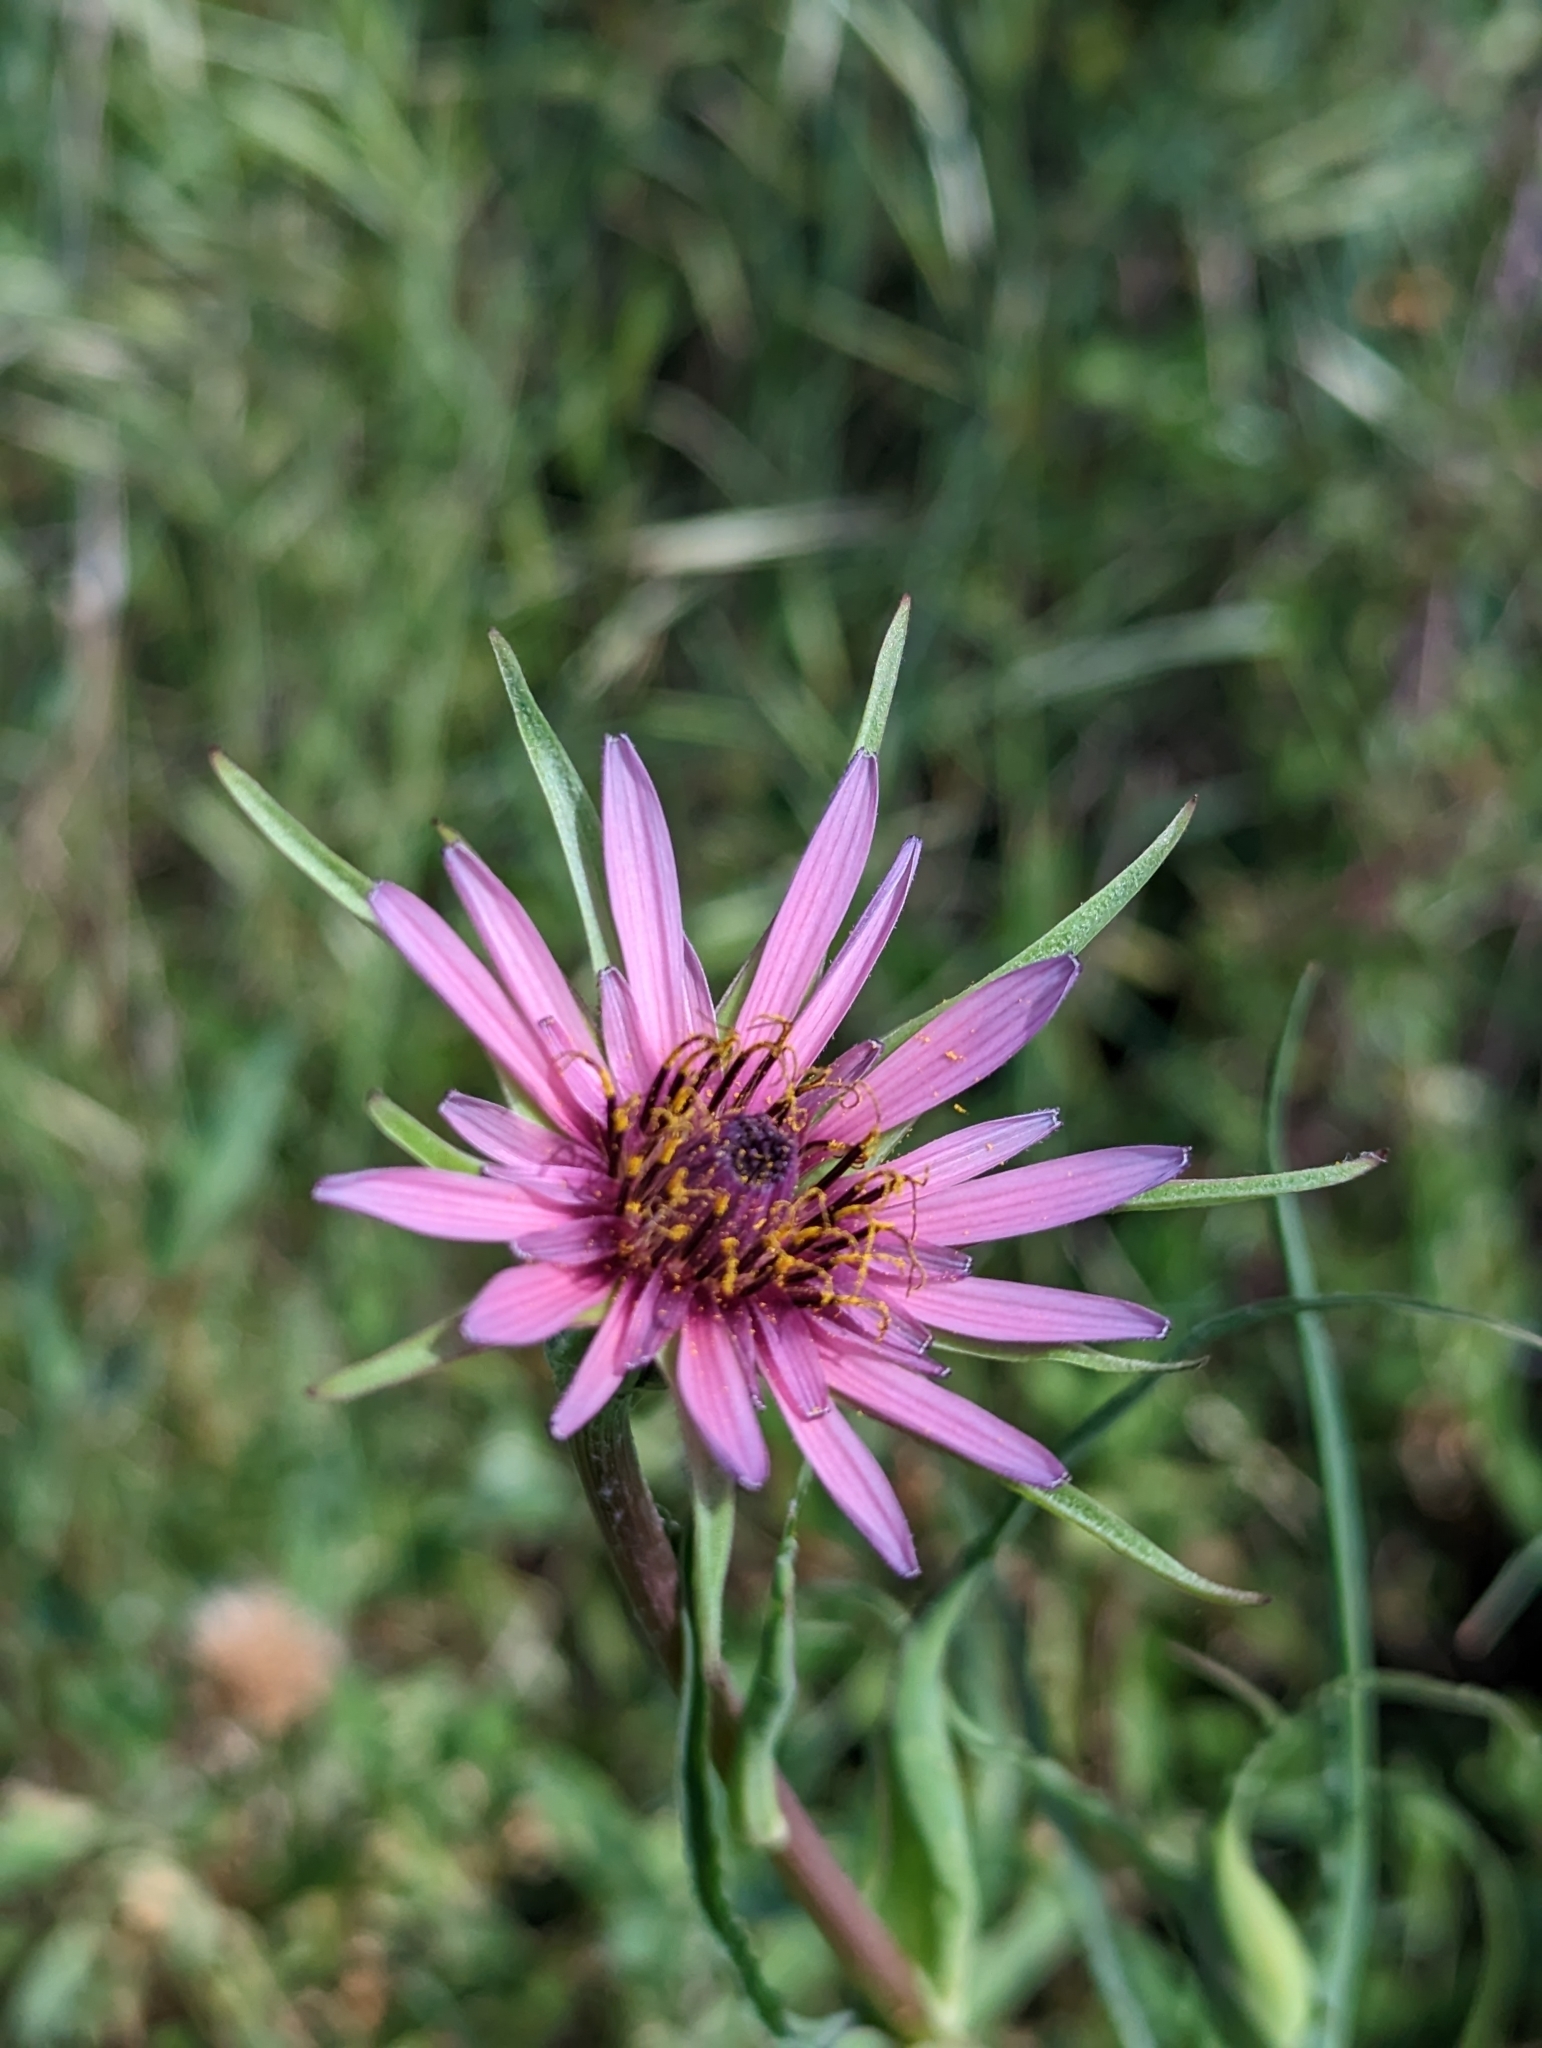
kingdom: Plantae
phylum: Tracheophyta
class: Magnoliopsida
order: Asterales
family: Asteraceae
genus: Tragopogon
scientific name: Tragopogon porrifolius
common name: Salsify
